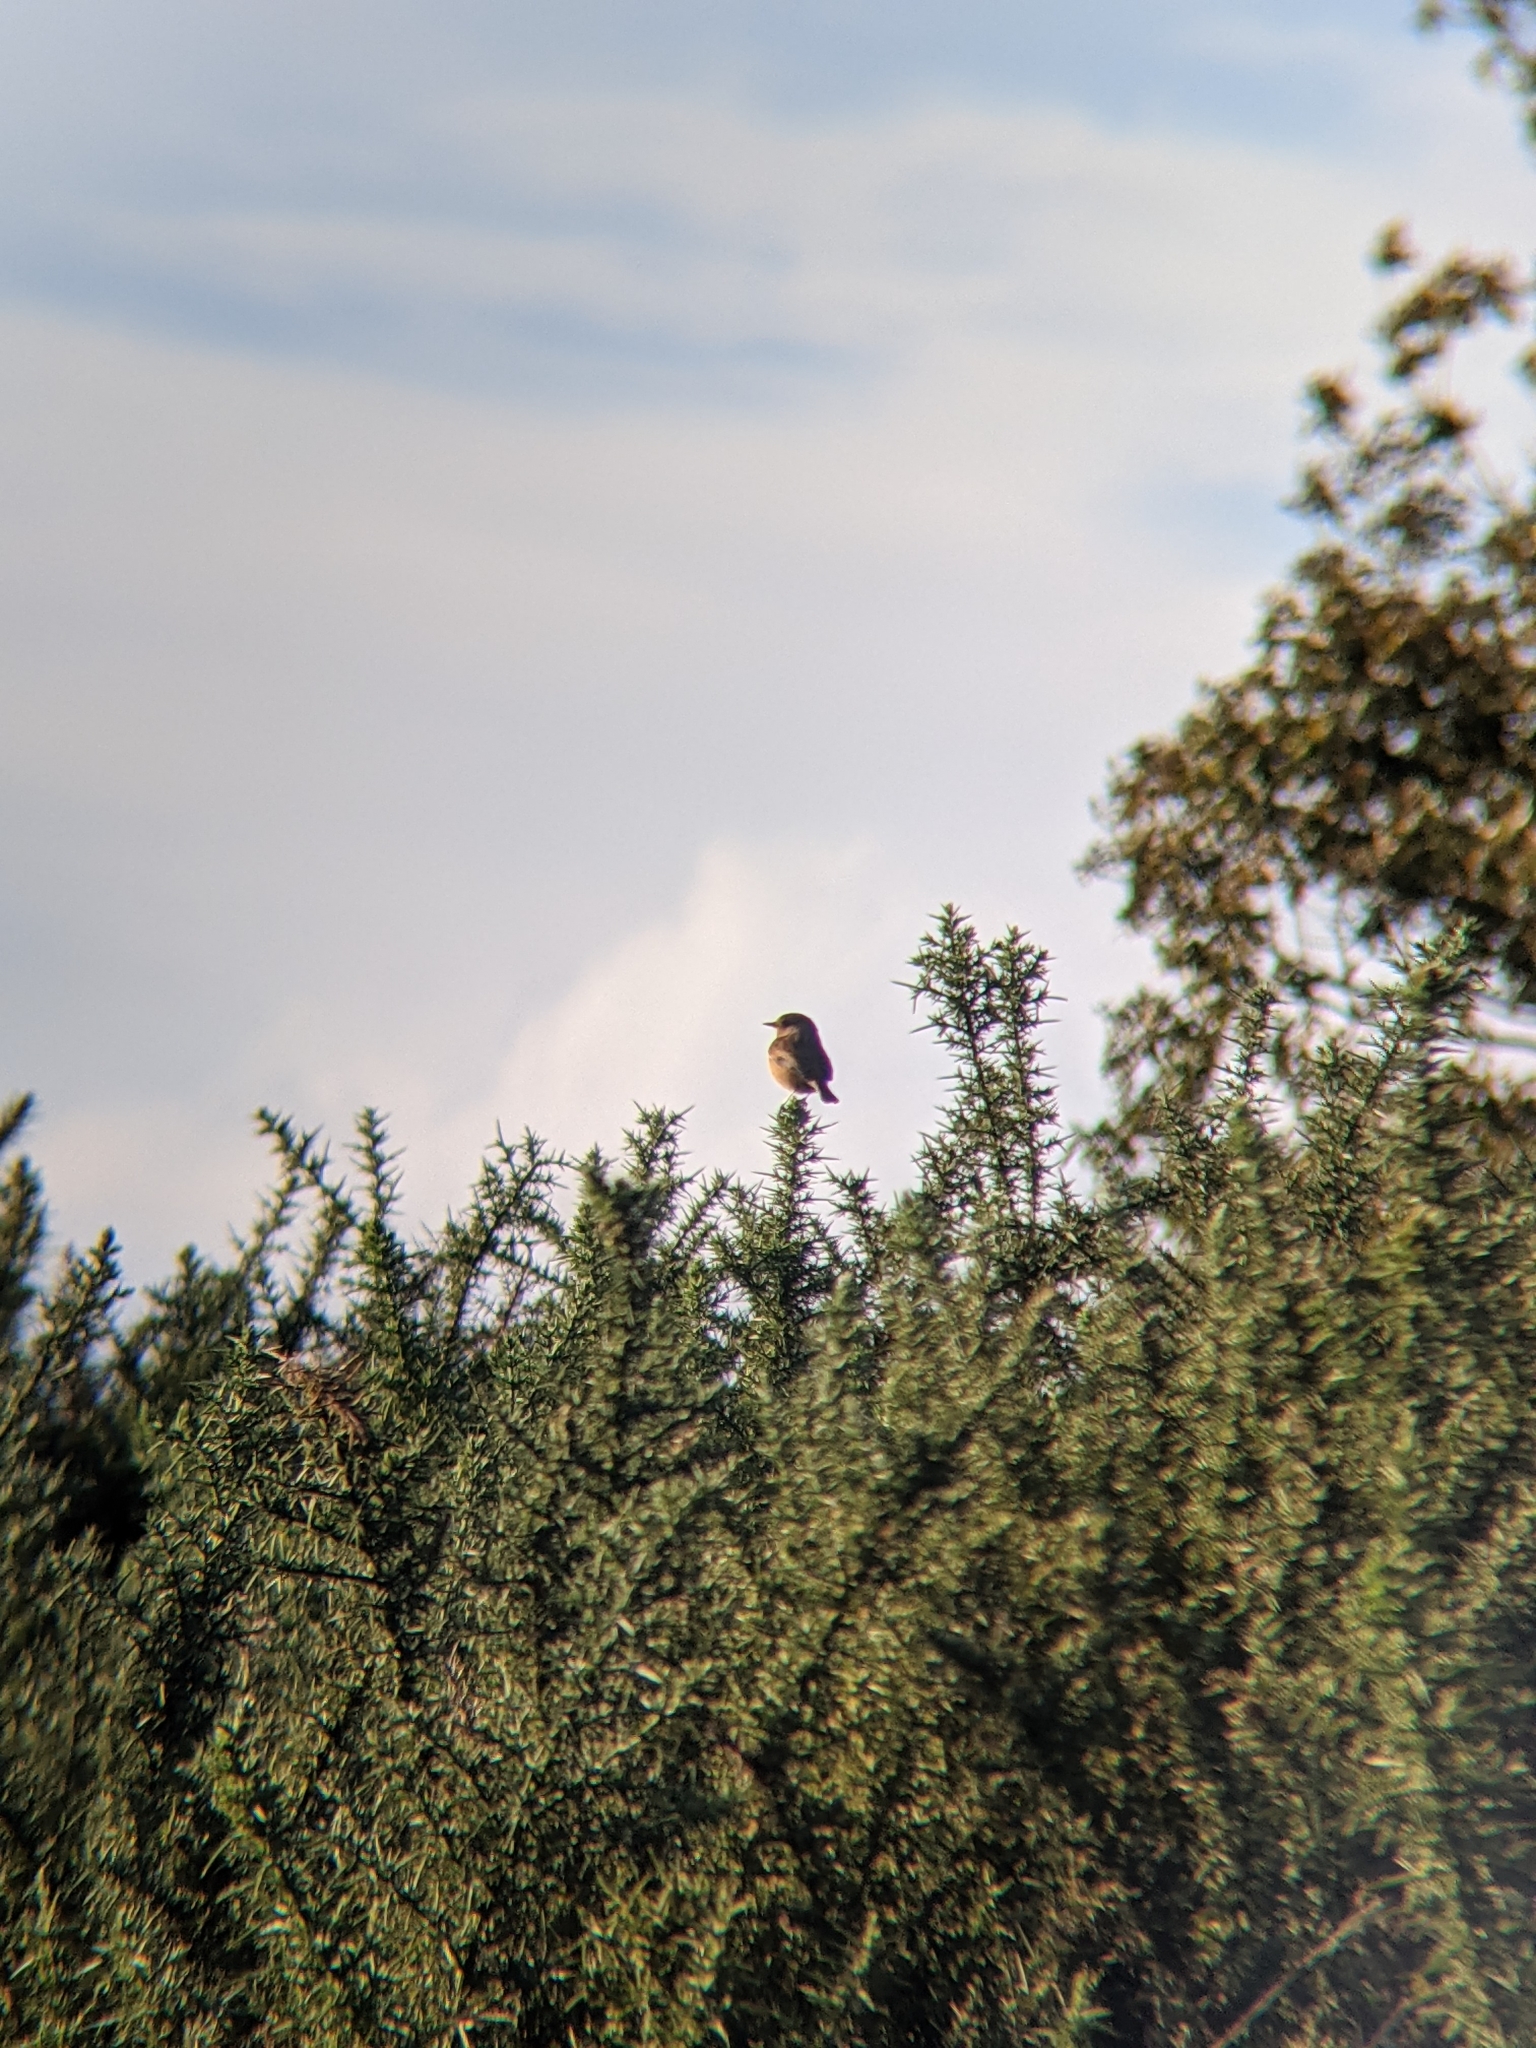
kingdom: Animalia
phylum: Chordata
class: Aves
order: Passeriformes
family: Muscicapidae
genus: Saxicola
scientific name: Saxicola rubicola
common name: European stonechat
